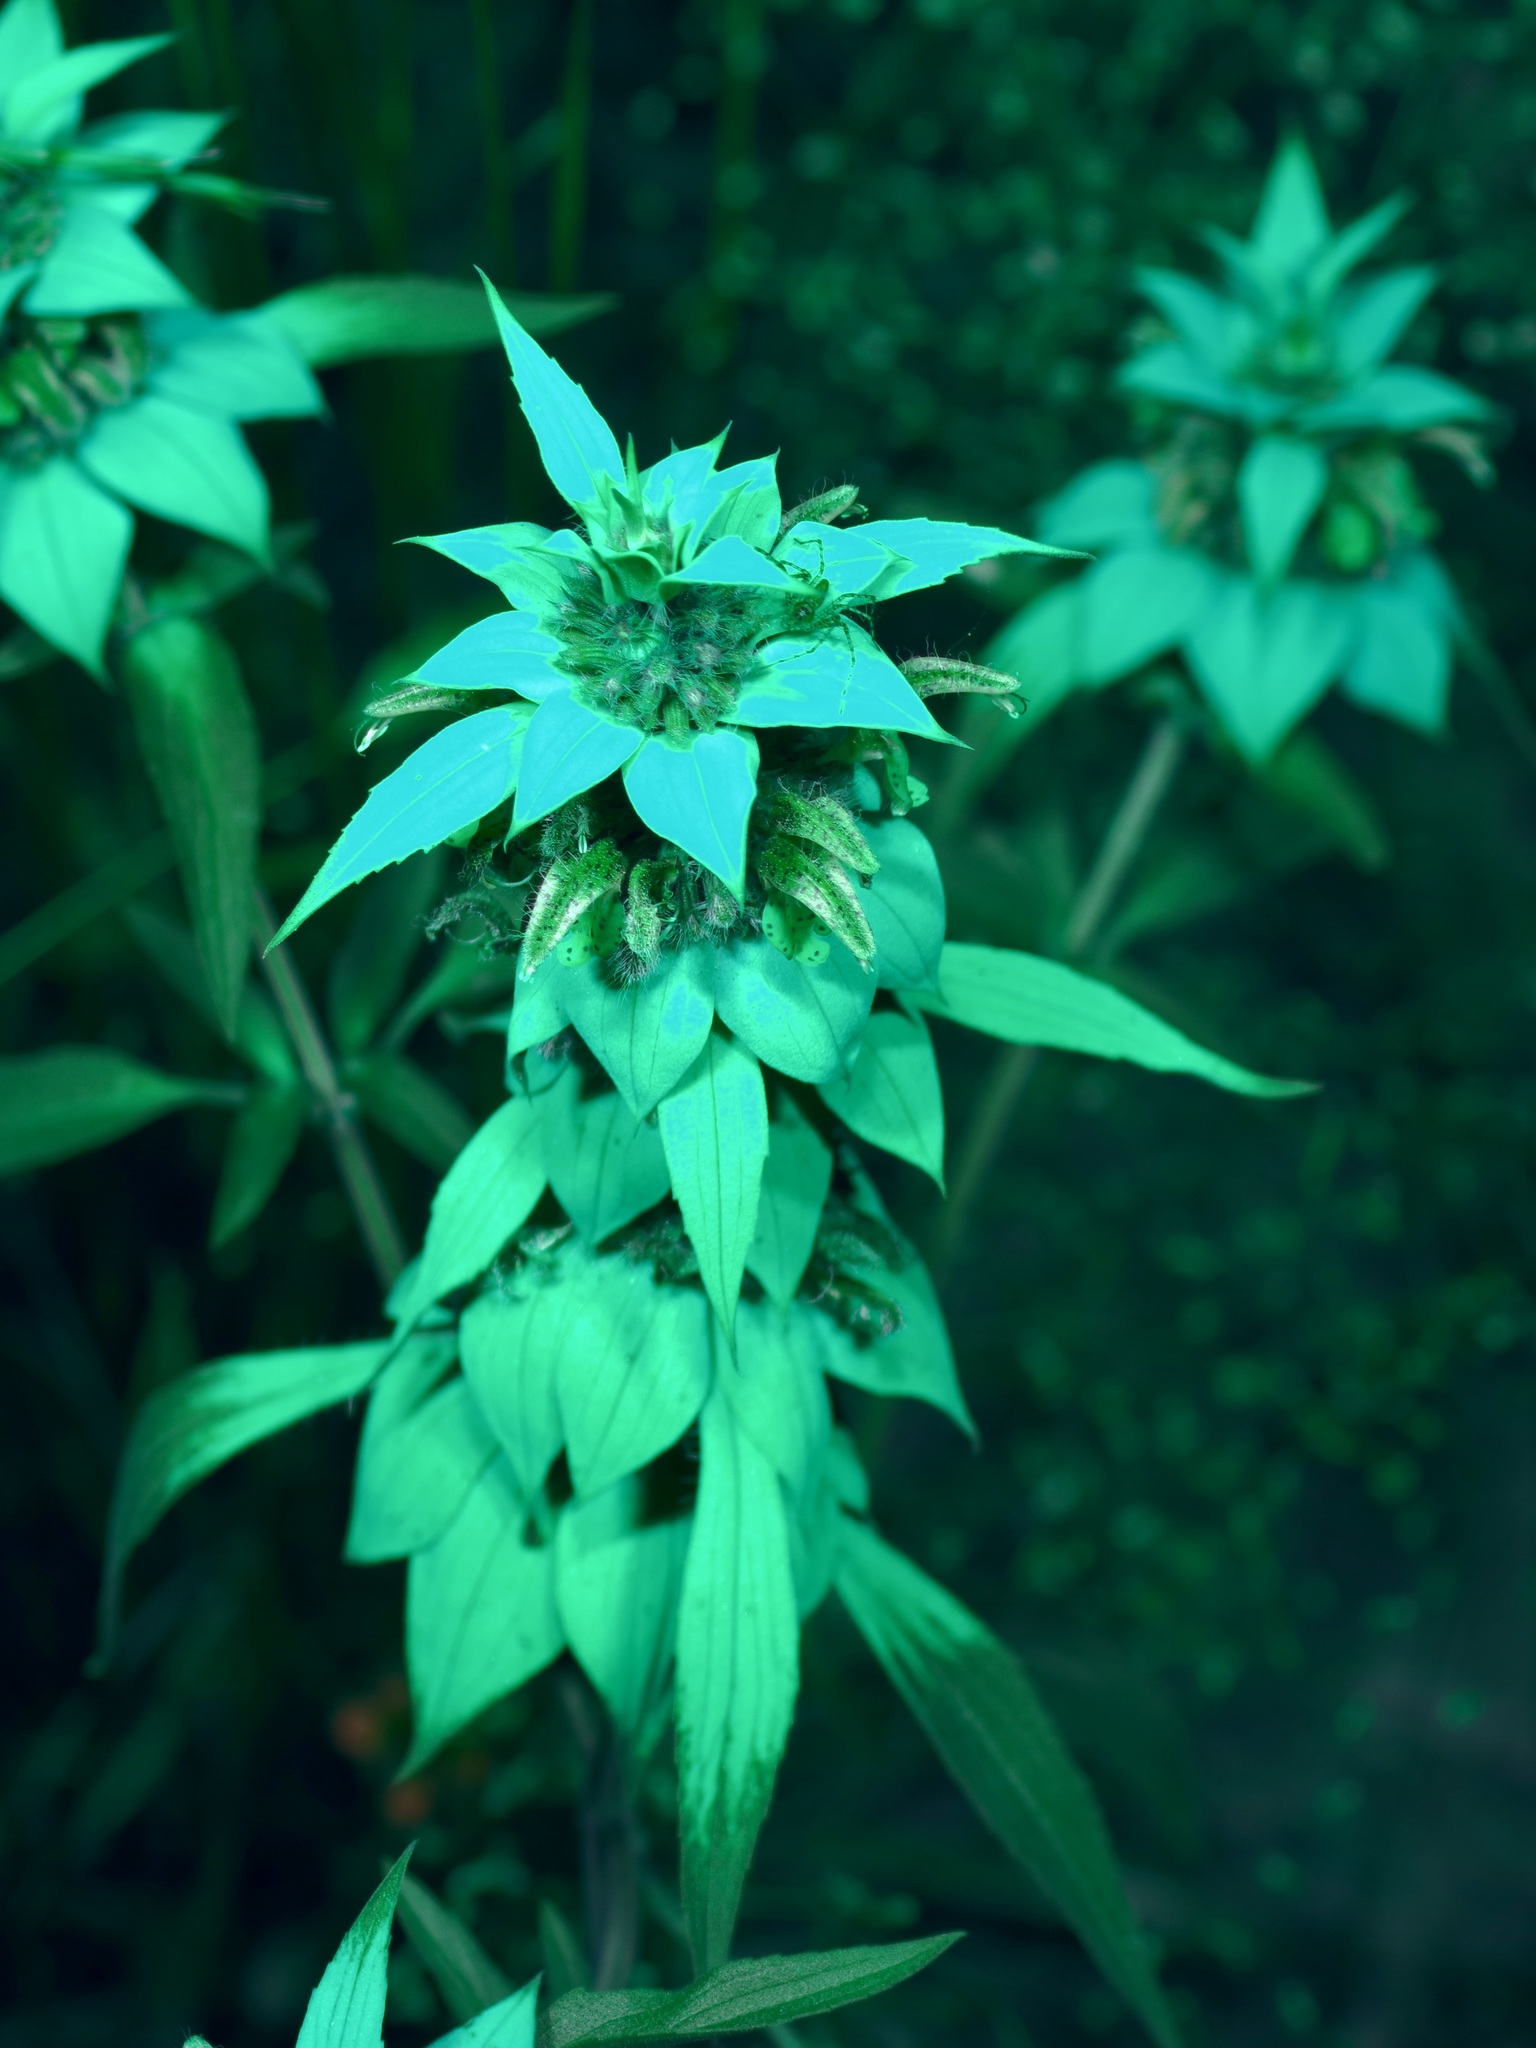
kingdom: Plantae
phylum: Tracheophyta
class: Magnoliopsida
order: Lamiales
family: Lamiaceae
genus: Monarda
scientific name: Monarda punctata
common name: Dotted monarda
